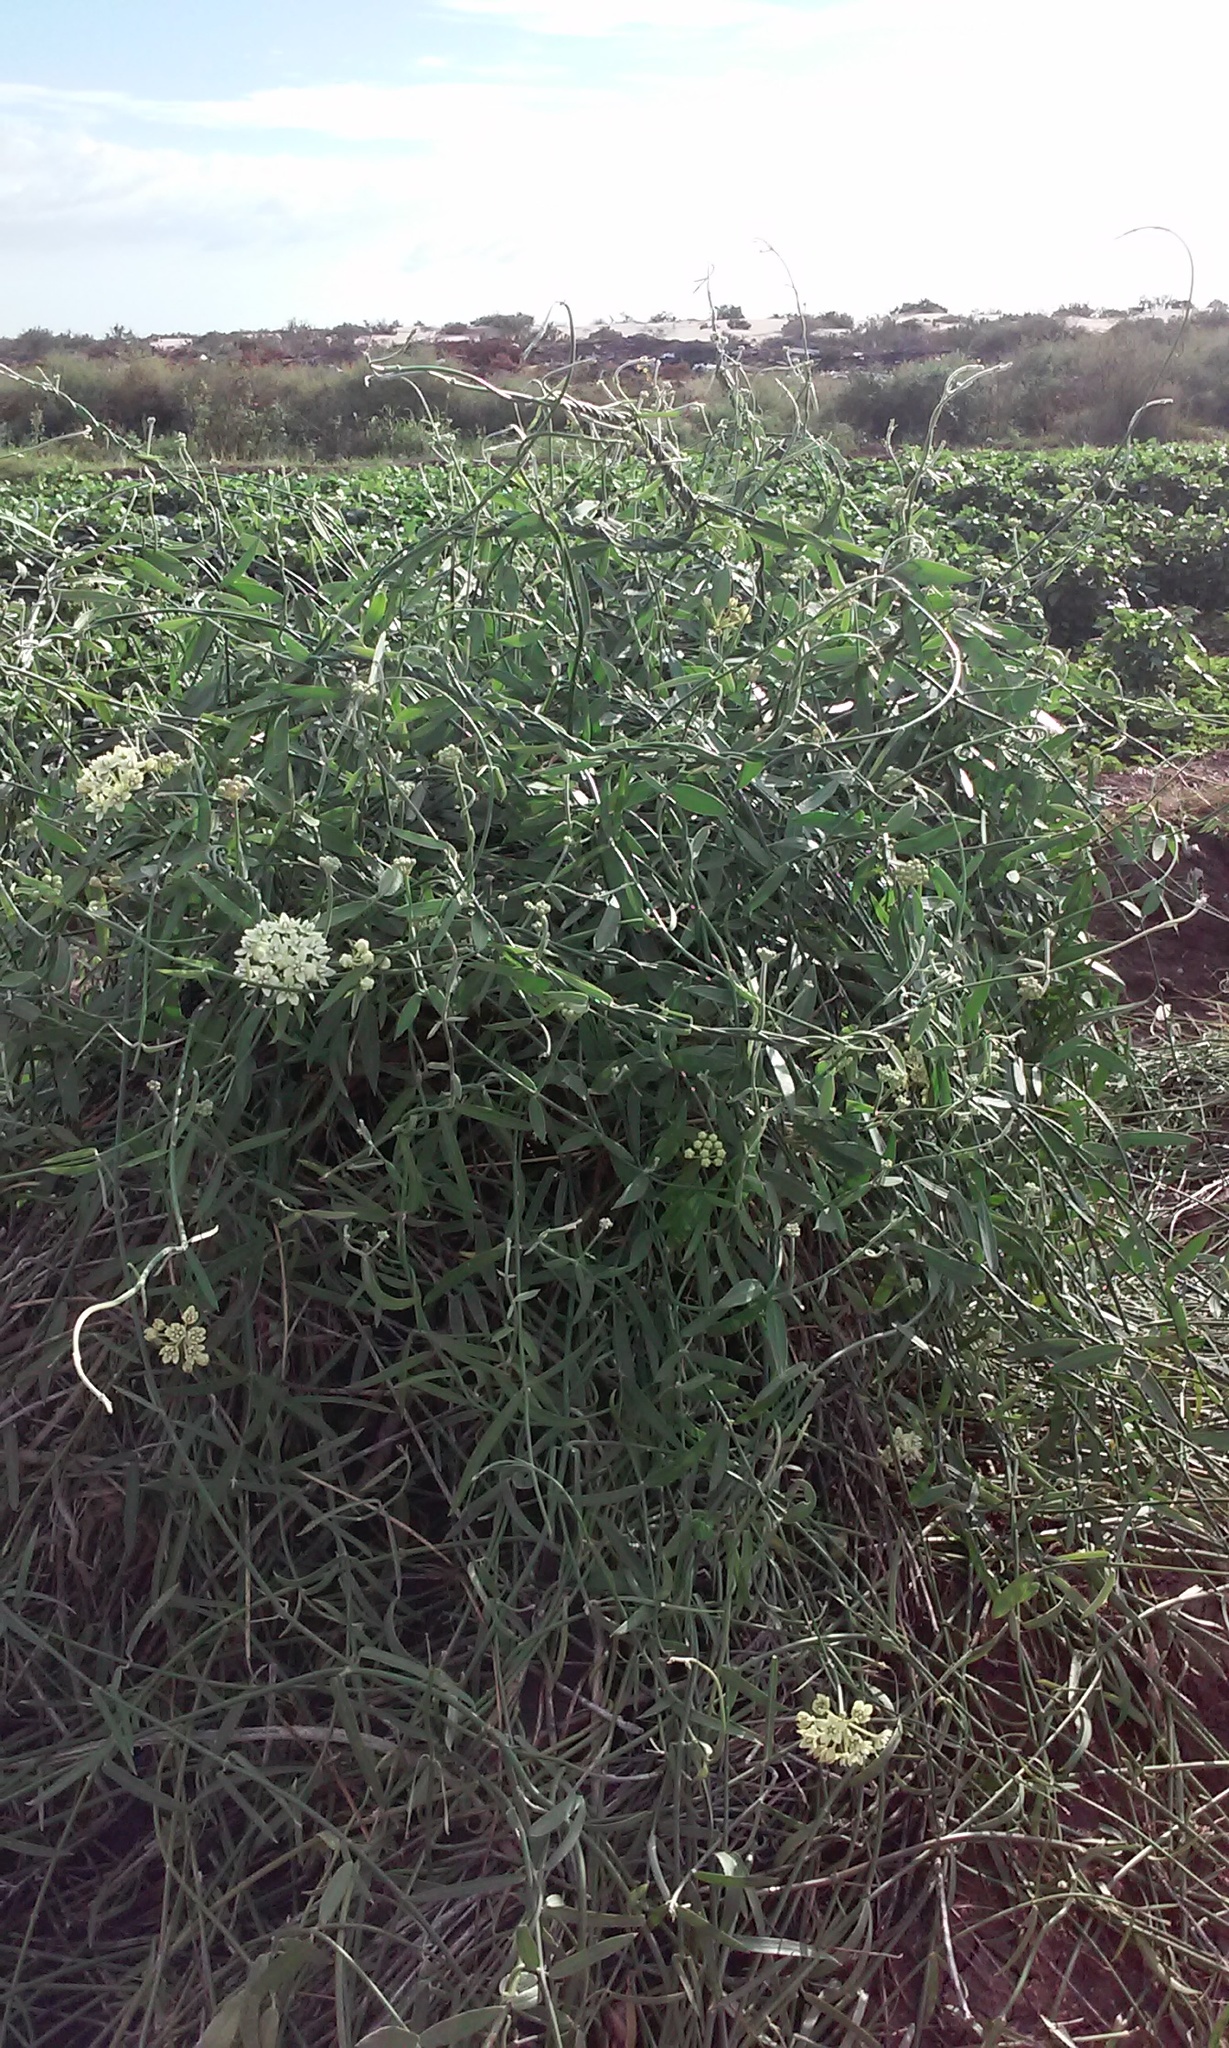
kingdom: Plantae
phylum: Tracheophyta
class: Magnoliopsida
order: Gentianales
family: Apocynaceae
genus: Funastrum
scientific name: Funastrum clausum
